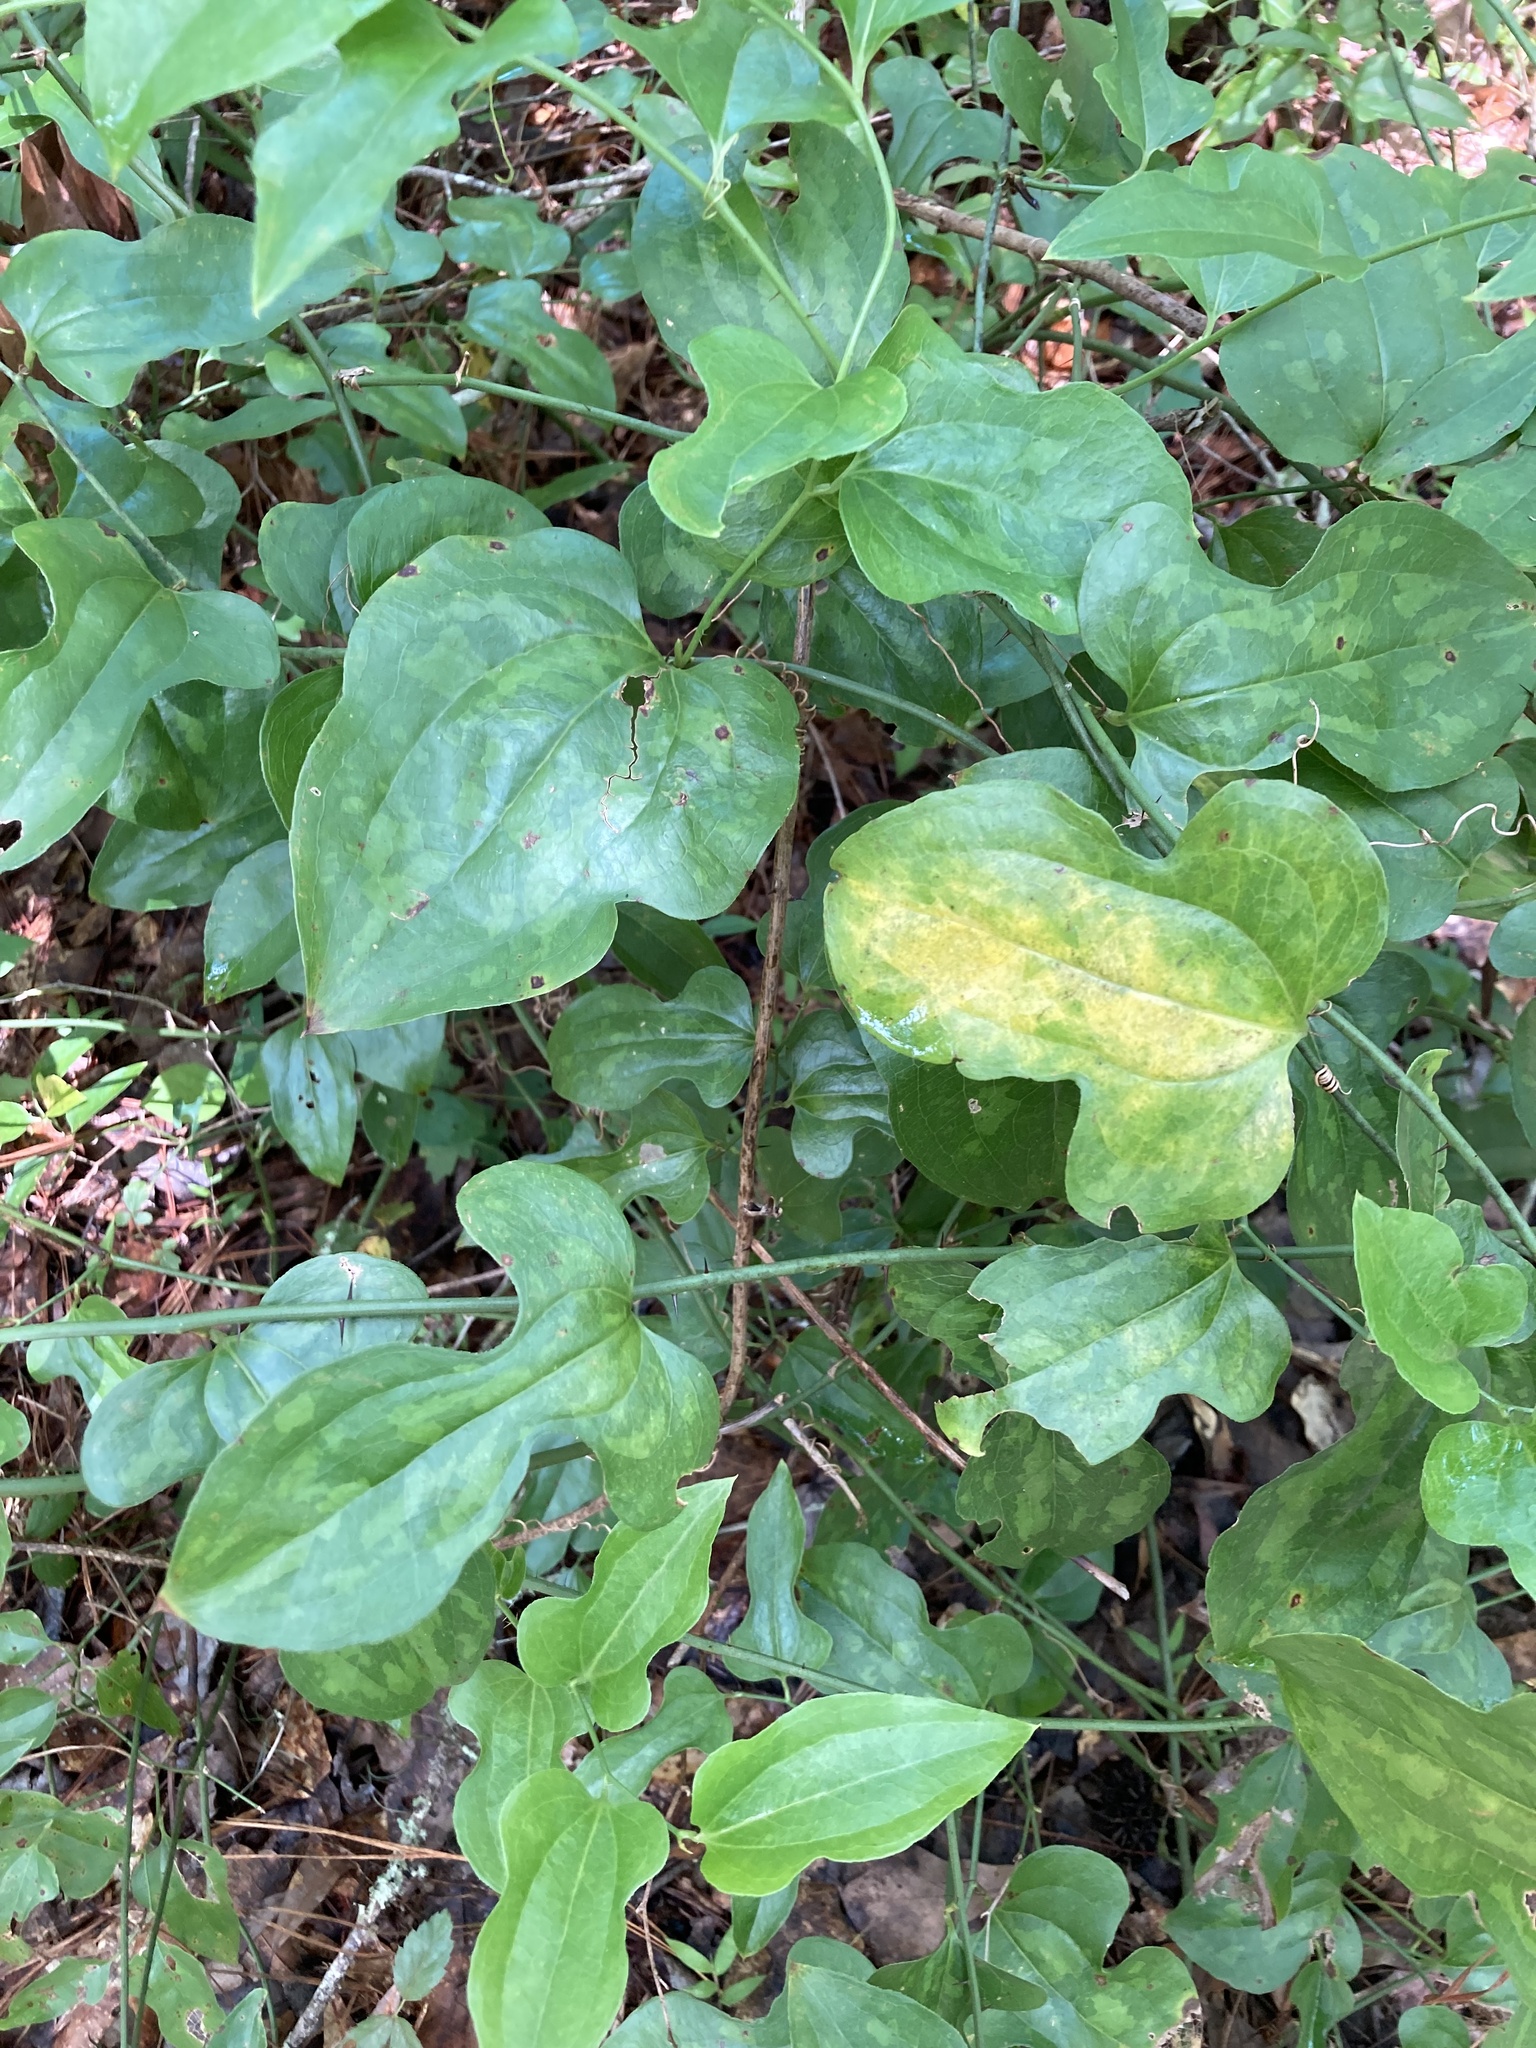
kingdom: Plantae
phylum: Tracheophyta
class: Liliopsida
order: Liliales
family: Smilacaceae
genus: Smilax
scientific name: Smilax tamnoides
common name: Hellfetter
